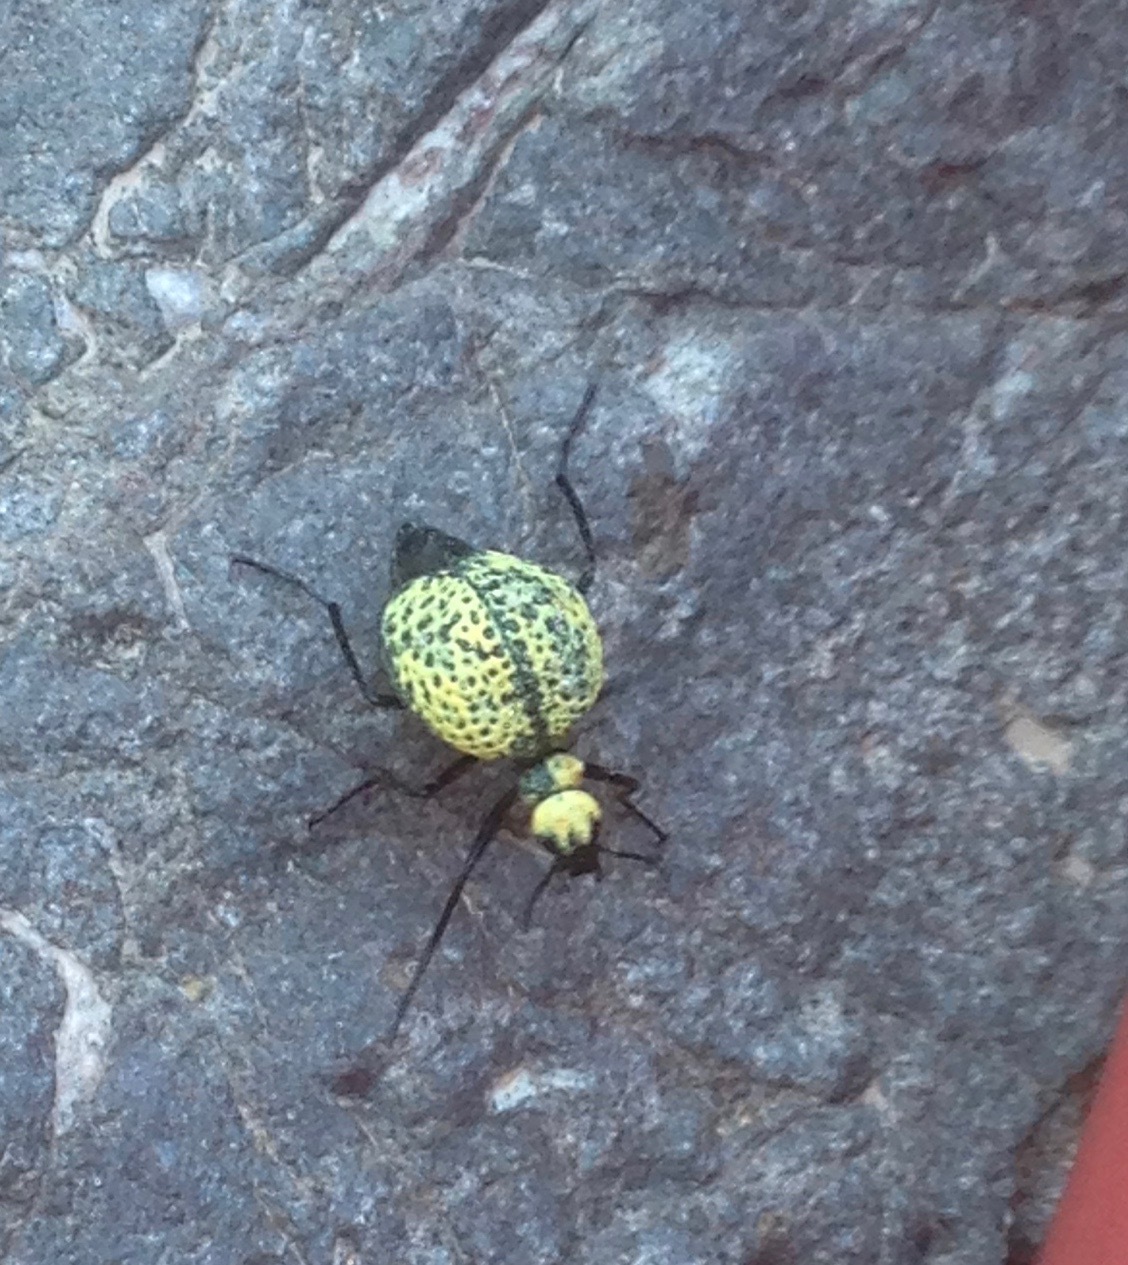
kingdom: Animalia
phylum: Arthropoda
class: Insecta
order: Coleoptera
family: Meloidae
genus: Cysteodemus
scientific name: Cysteodemus armatus
